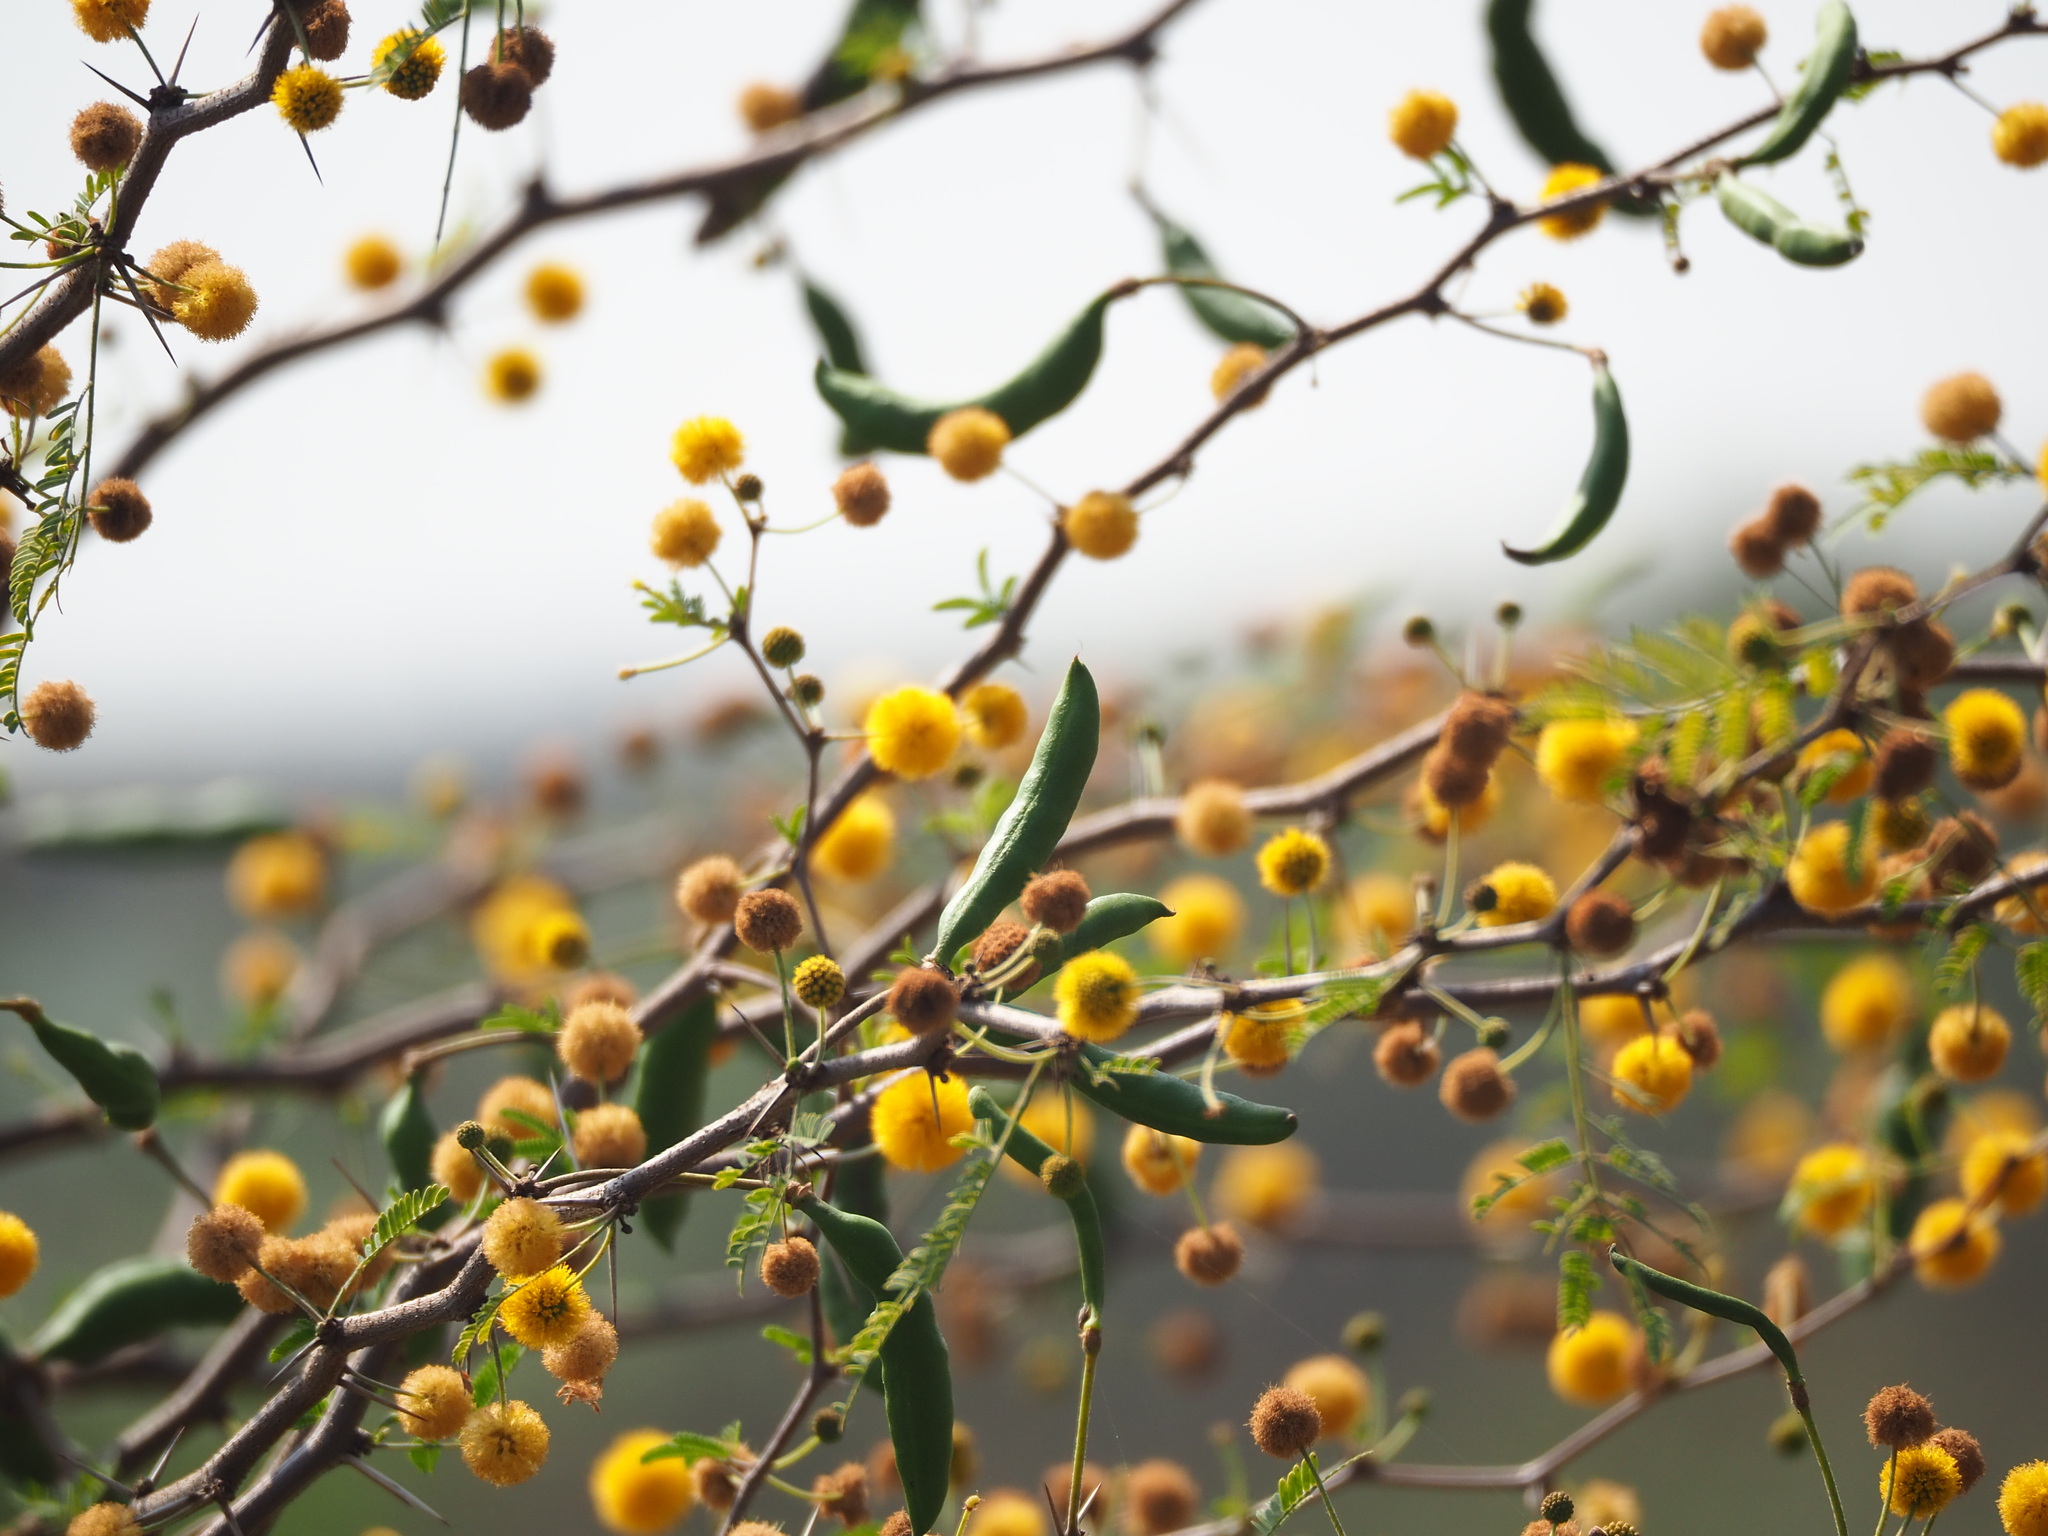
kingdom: Plantae
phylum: Tracheophyta
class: Magnoliopsida
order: Fabales
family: Fabaceae
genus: Vachellia
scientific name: Vachellia farnesiana
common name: Sweet acacia
